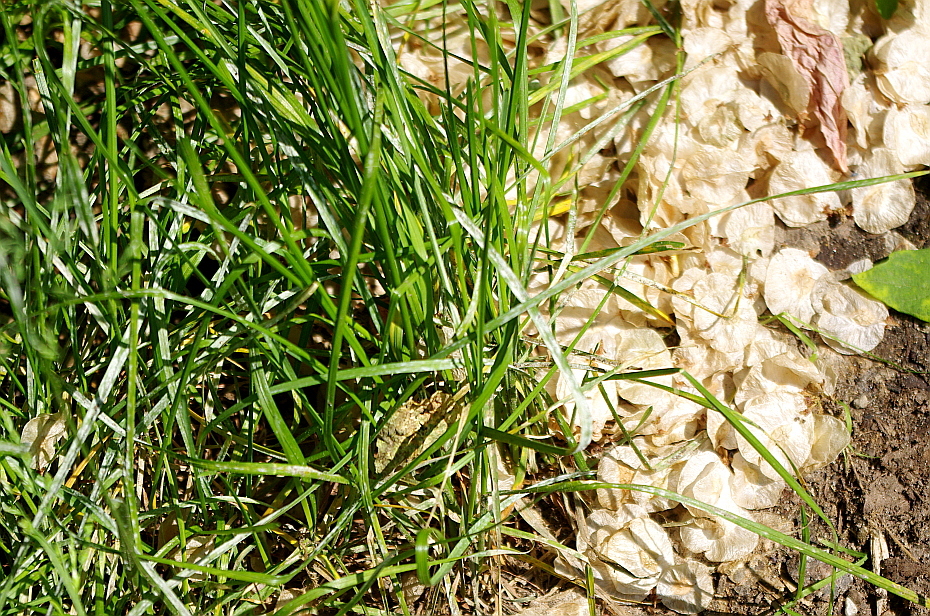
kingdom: Plantae
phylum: Tracheophyta
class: Liliopsida
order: Poales
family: Poaceae
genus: Poa
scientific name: Poa pratensis
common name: Kentucky bluegrass
